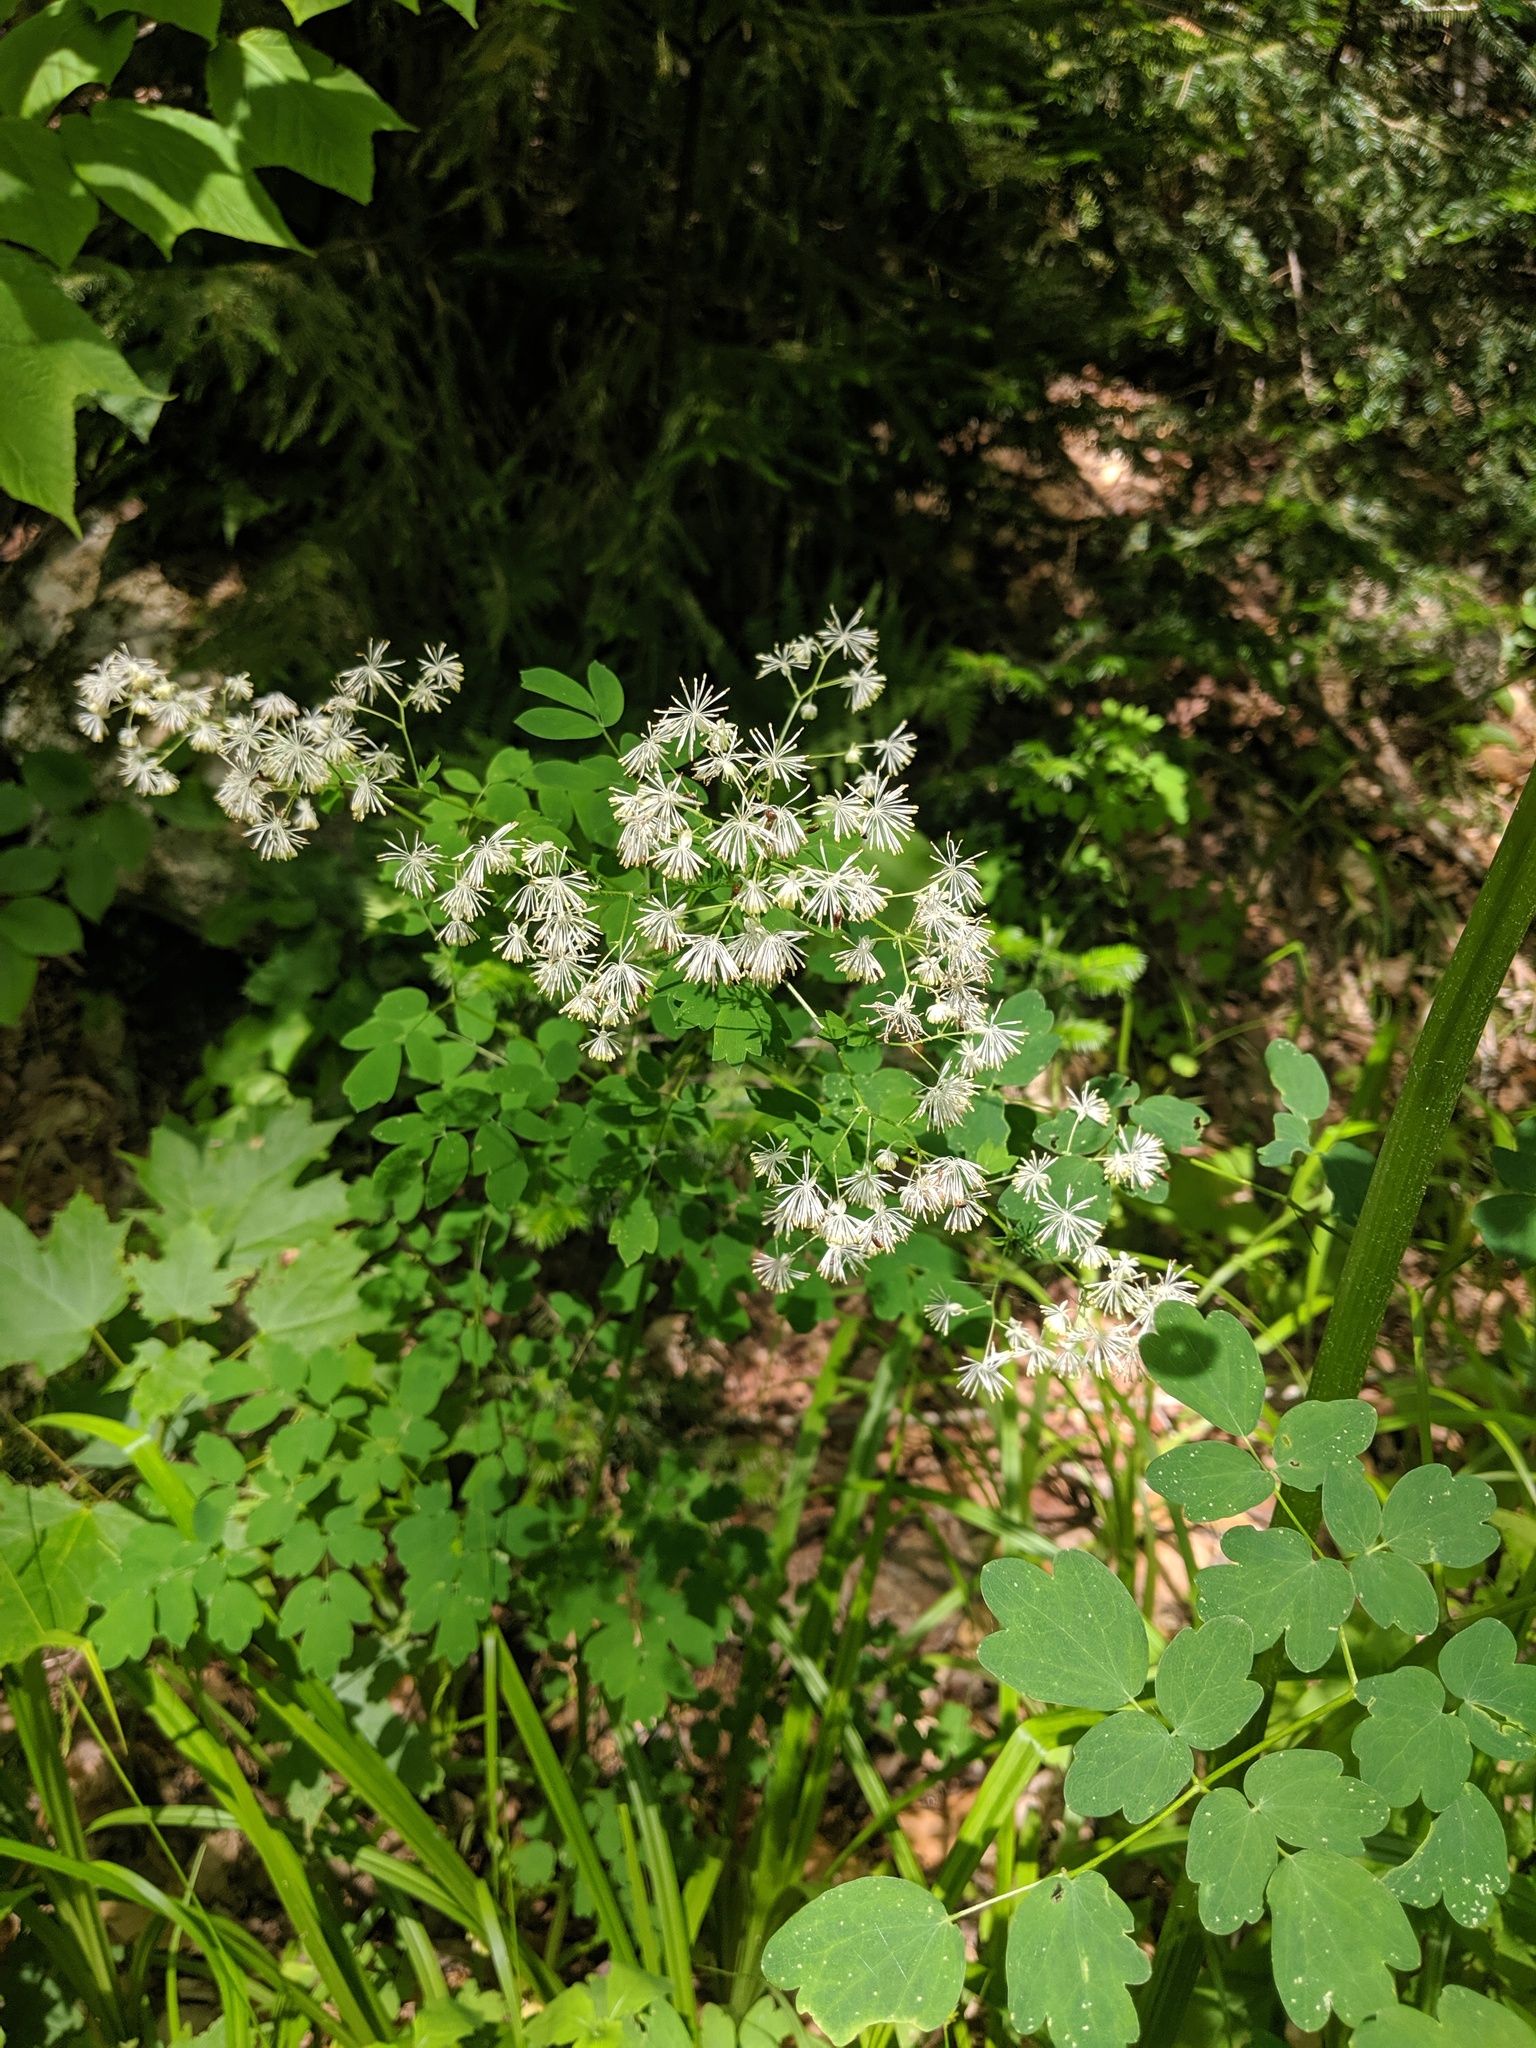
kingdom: Plantae
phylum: Tracheophyta
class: Magnoliopsida
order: Ranunculales
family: Ranunculaceae
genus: Thalictrum
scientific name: Thalictrum pubescens
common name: King-of-the-meadow
